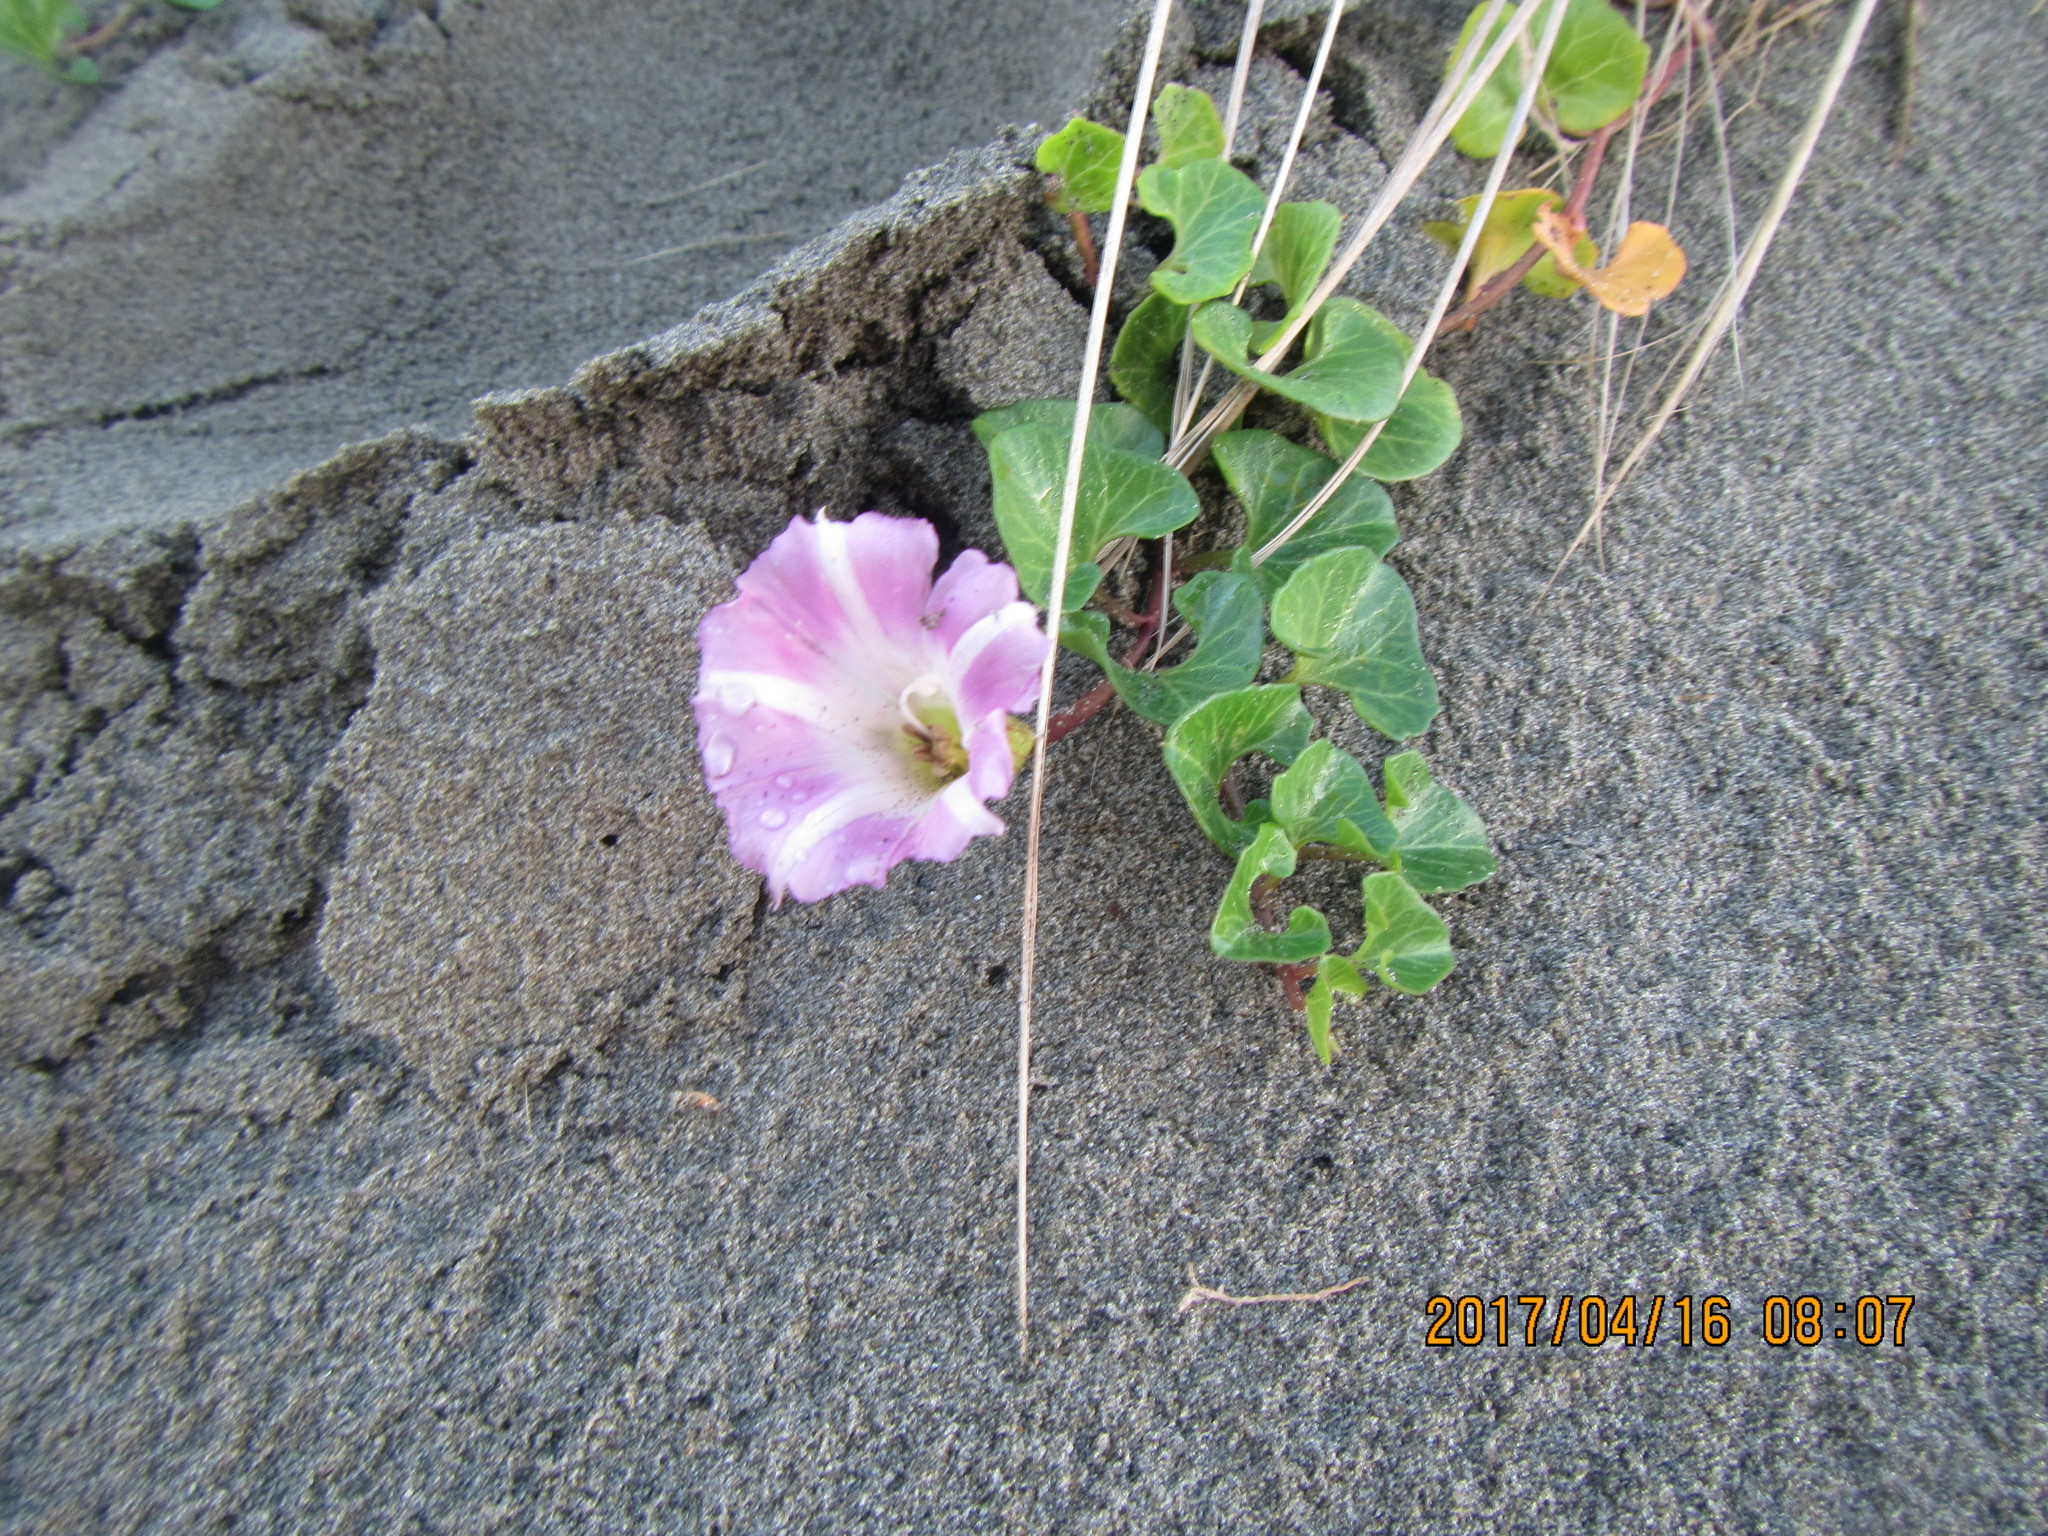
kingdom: Plantae
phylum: Tracheophyta
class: Magnoliopsida
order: Solanales
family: Convolvulaceae
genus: Calystegia
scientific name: Calystegia soldanella
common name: Sea bindweed
